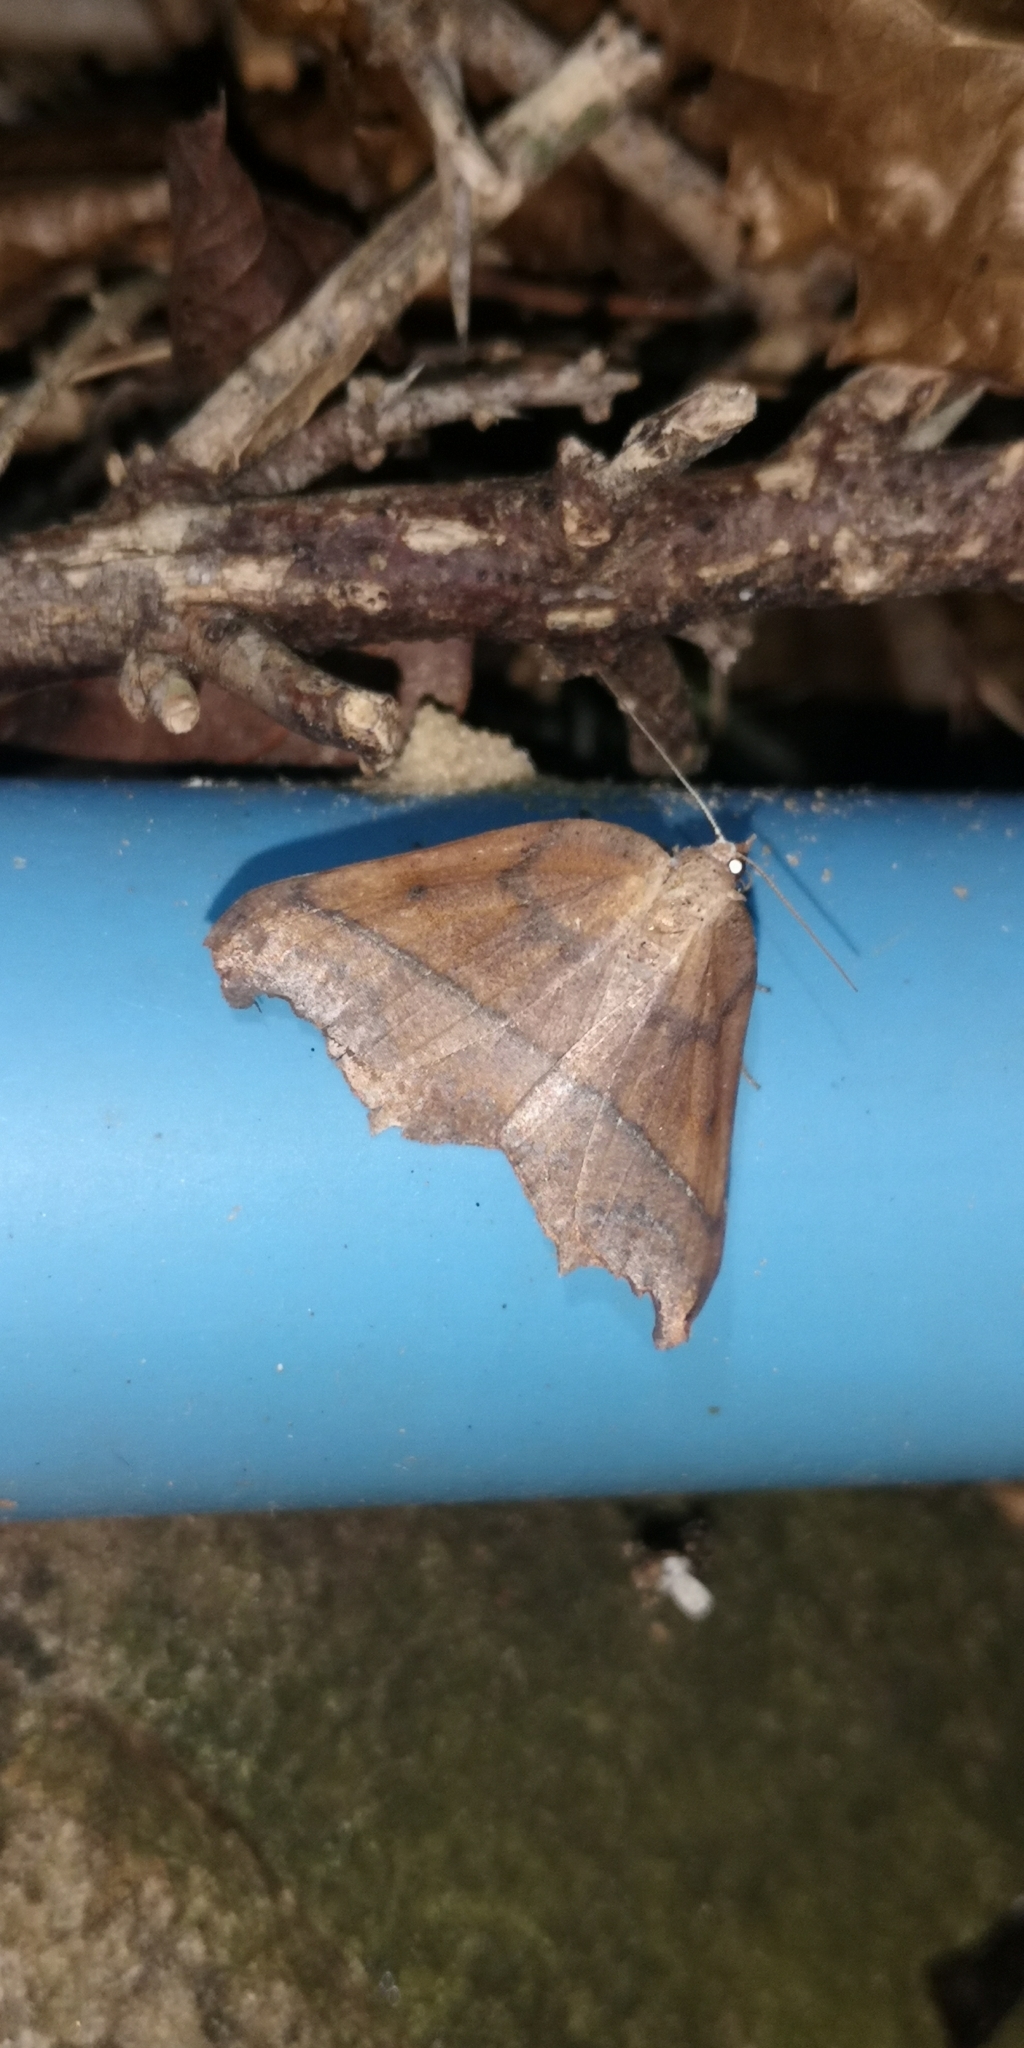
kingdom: Animalia
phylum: Arthropoda
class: Insecta
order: Lepidoptera
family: Geometridae
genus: Syncirsodes
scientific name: Syncirsodes primata
